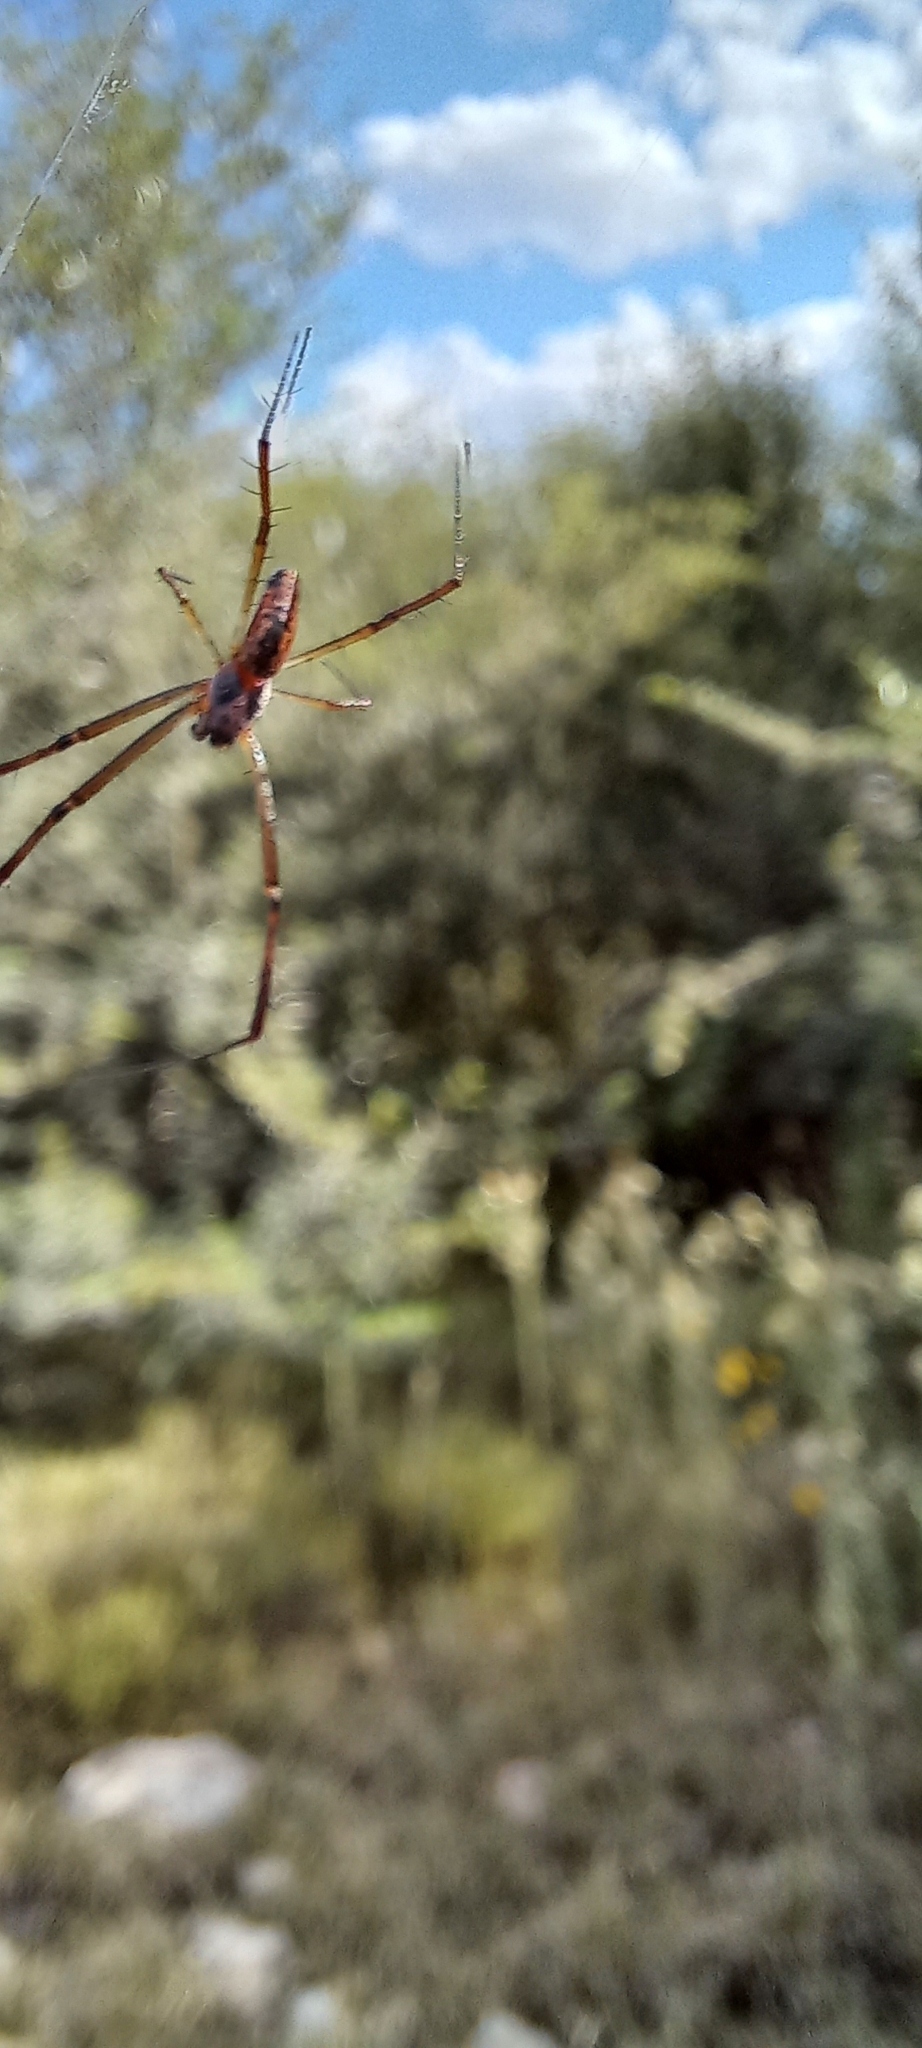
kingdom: Animalia
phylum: Arthropoda
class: Arachnida
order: Araneae
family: Araneidae
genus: Trichonephila
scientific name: Trichonephila senegalensis
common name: Banded golden orb weaver
